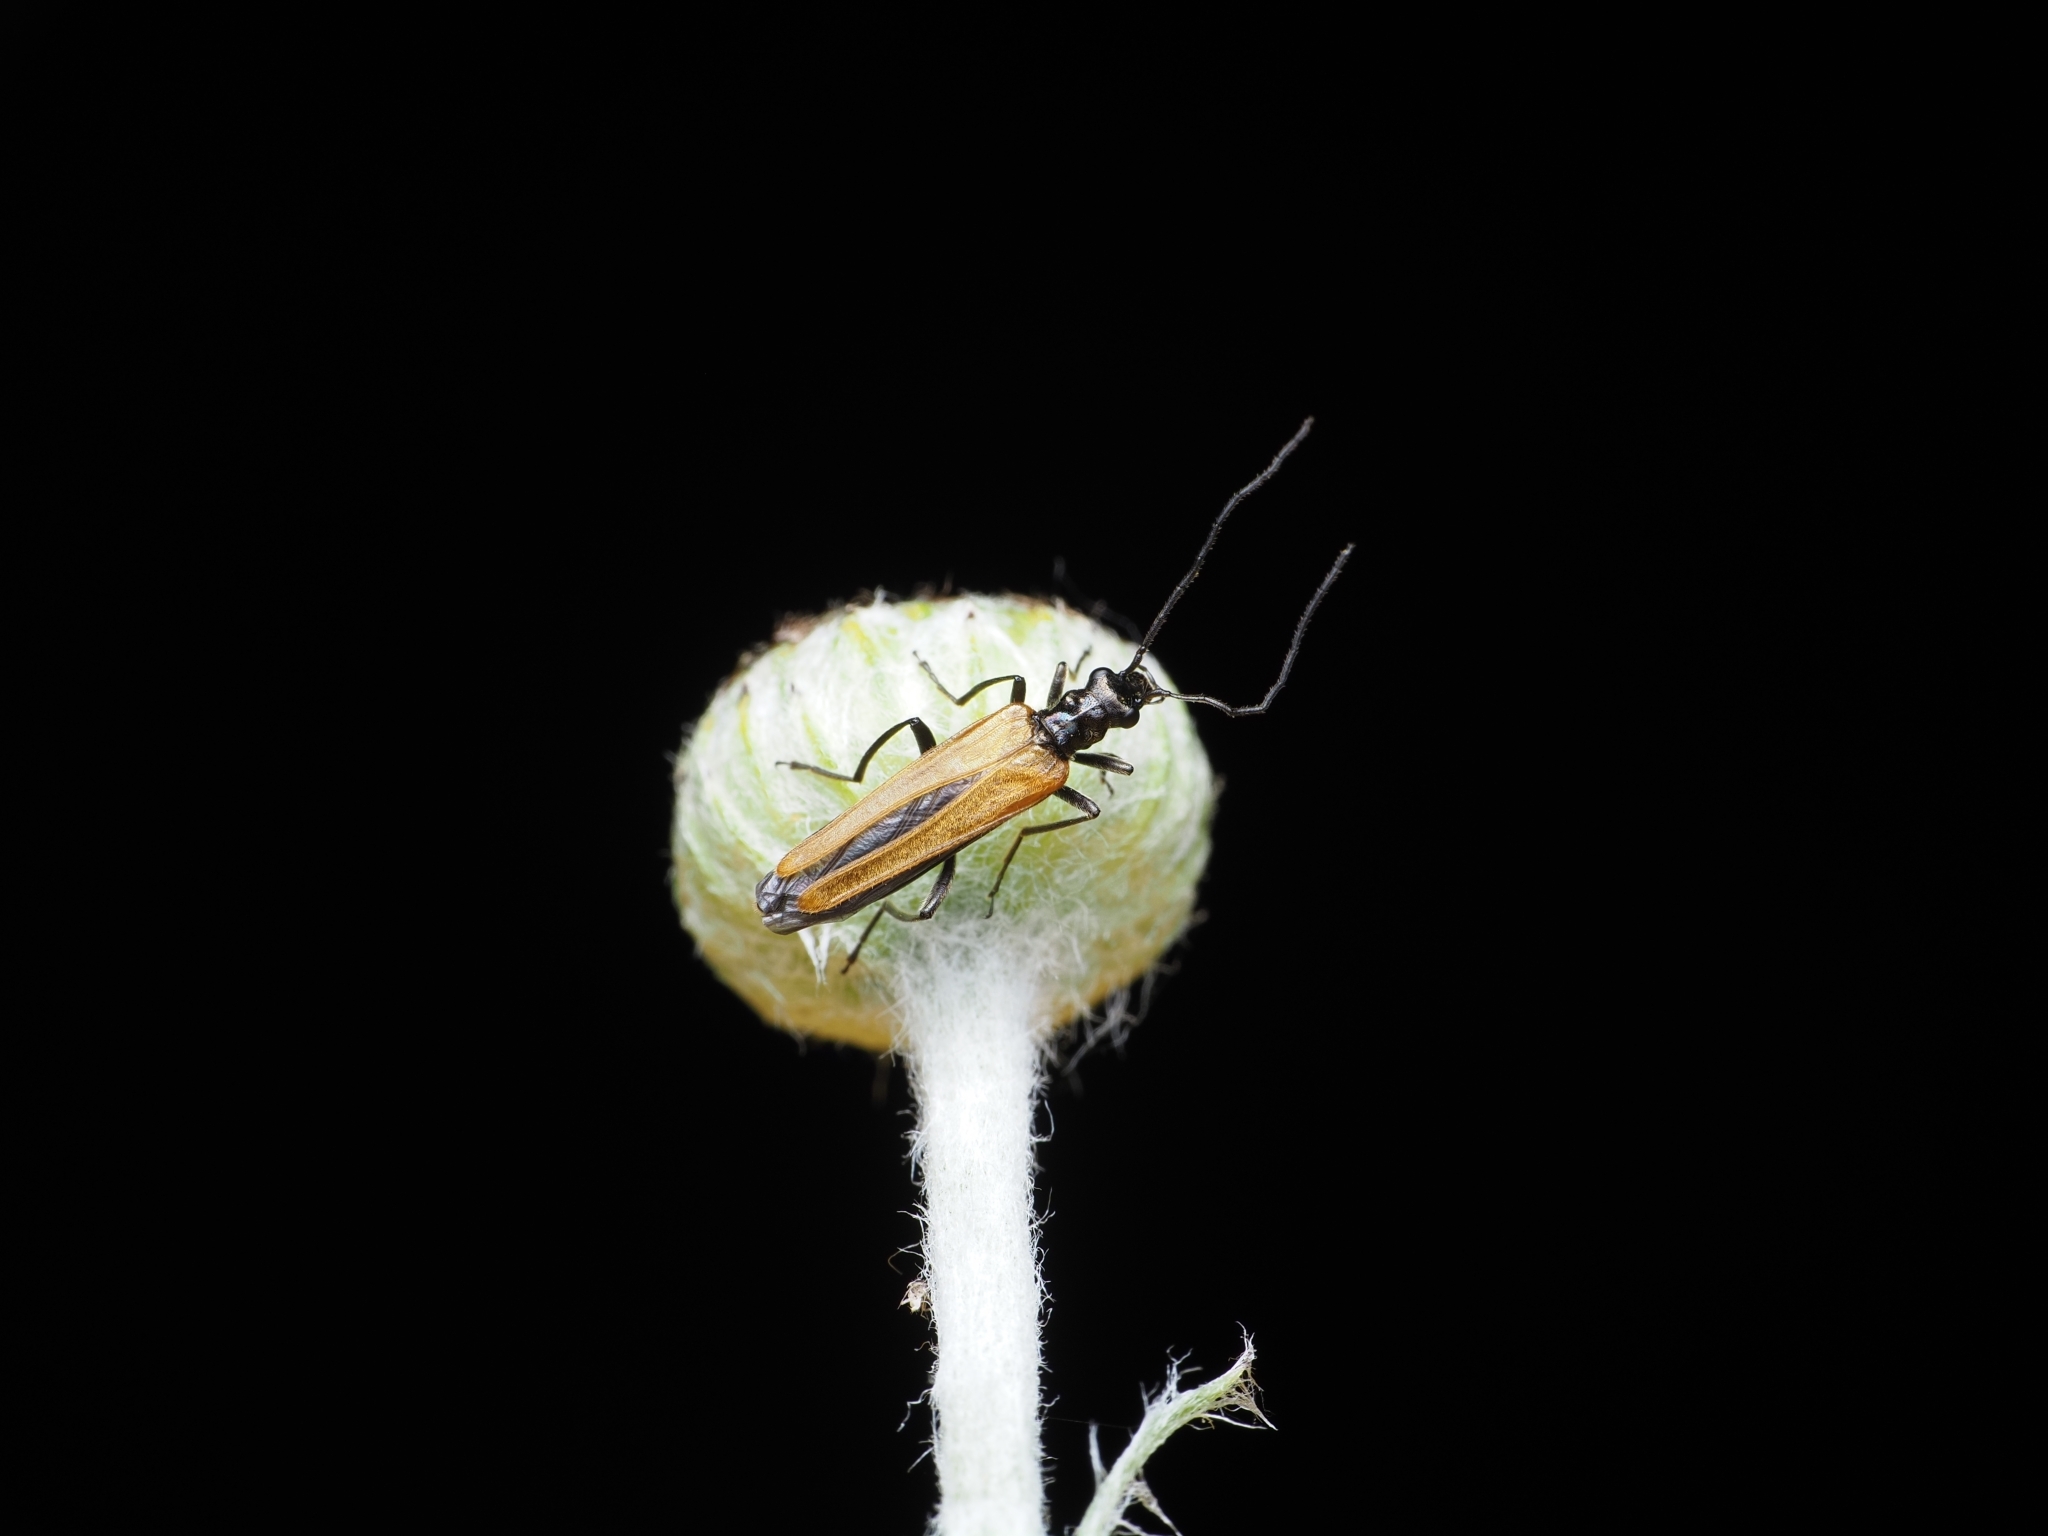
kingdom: Animalia
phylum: Arthropoda
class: Insecta
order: Coleoptera
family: Oedemeridae
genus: Oedemera
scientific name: Oedemera femorata
